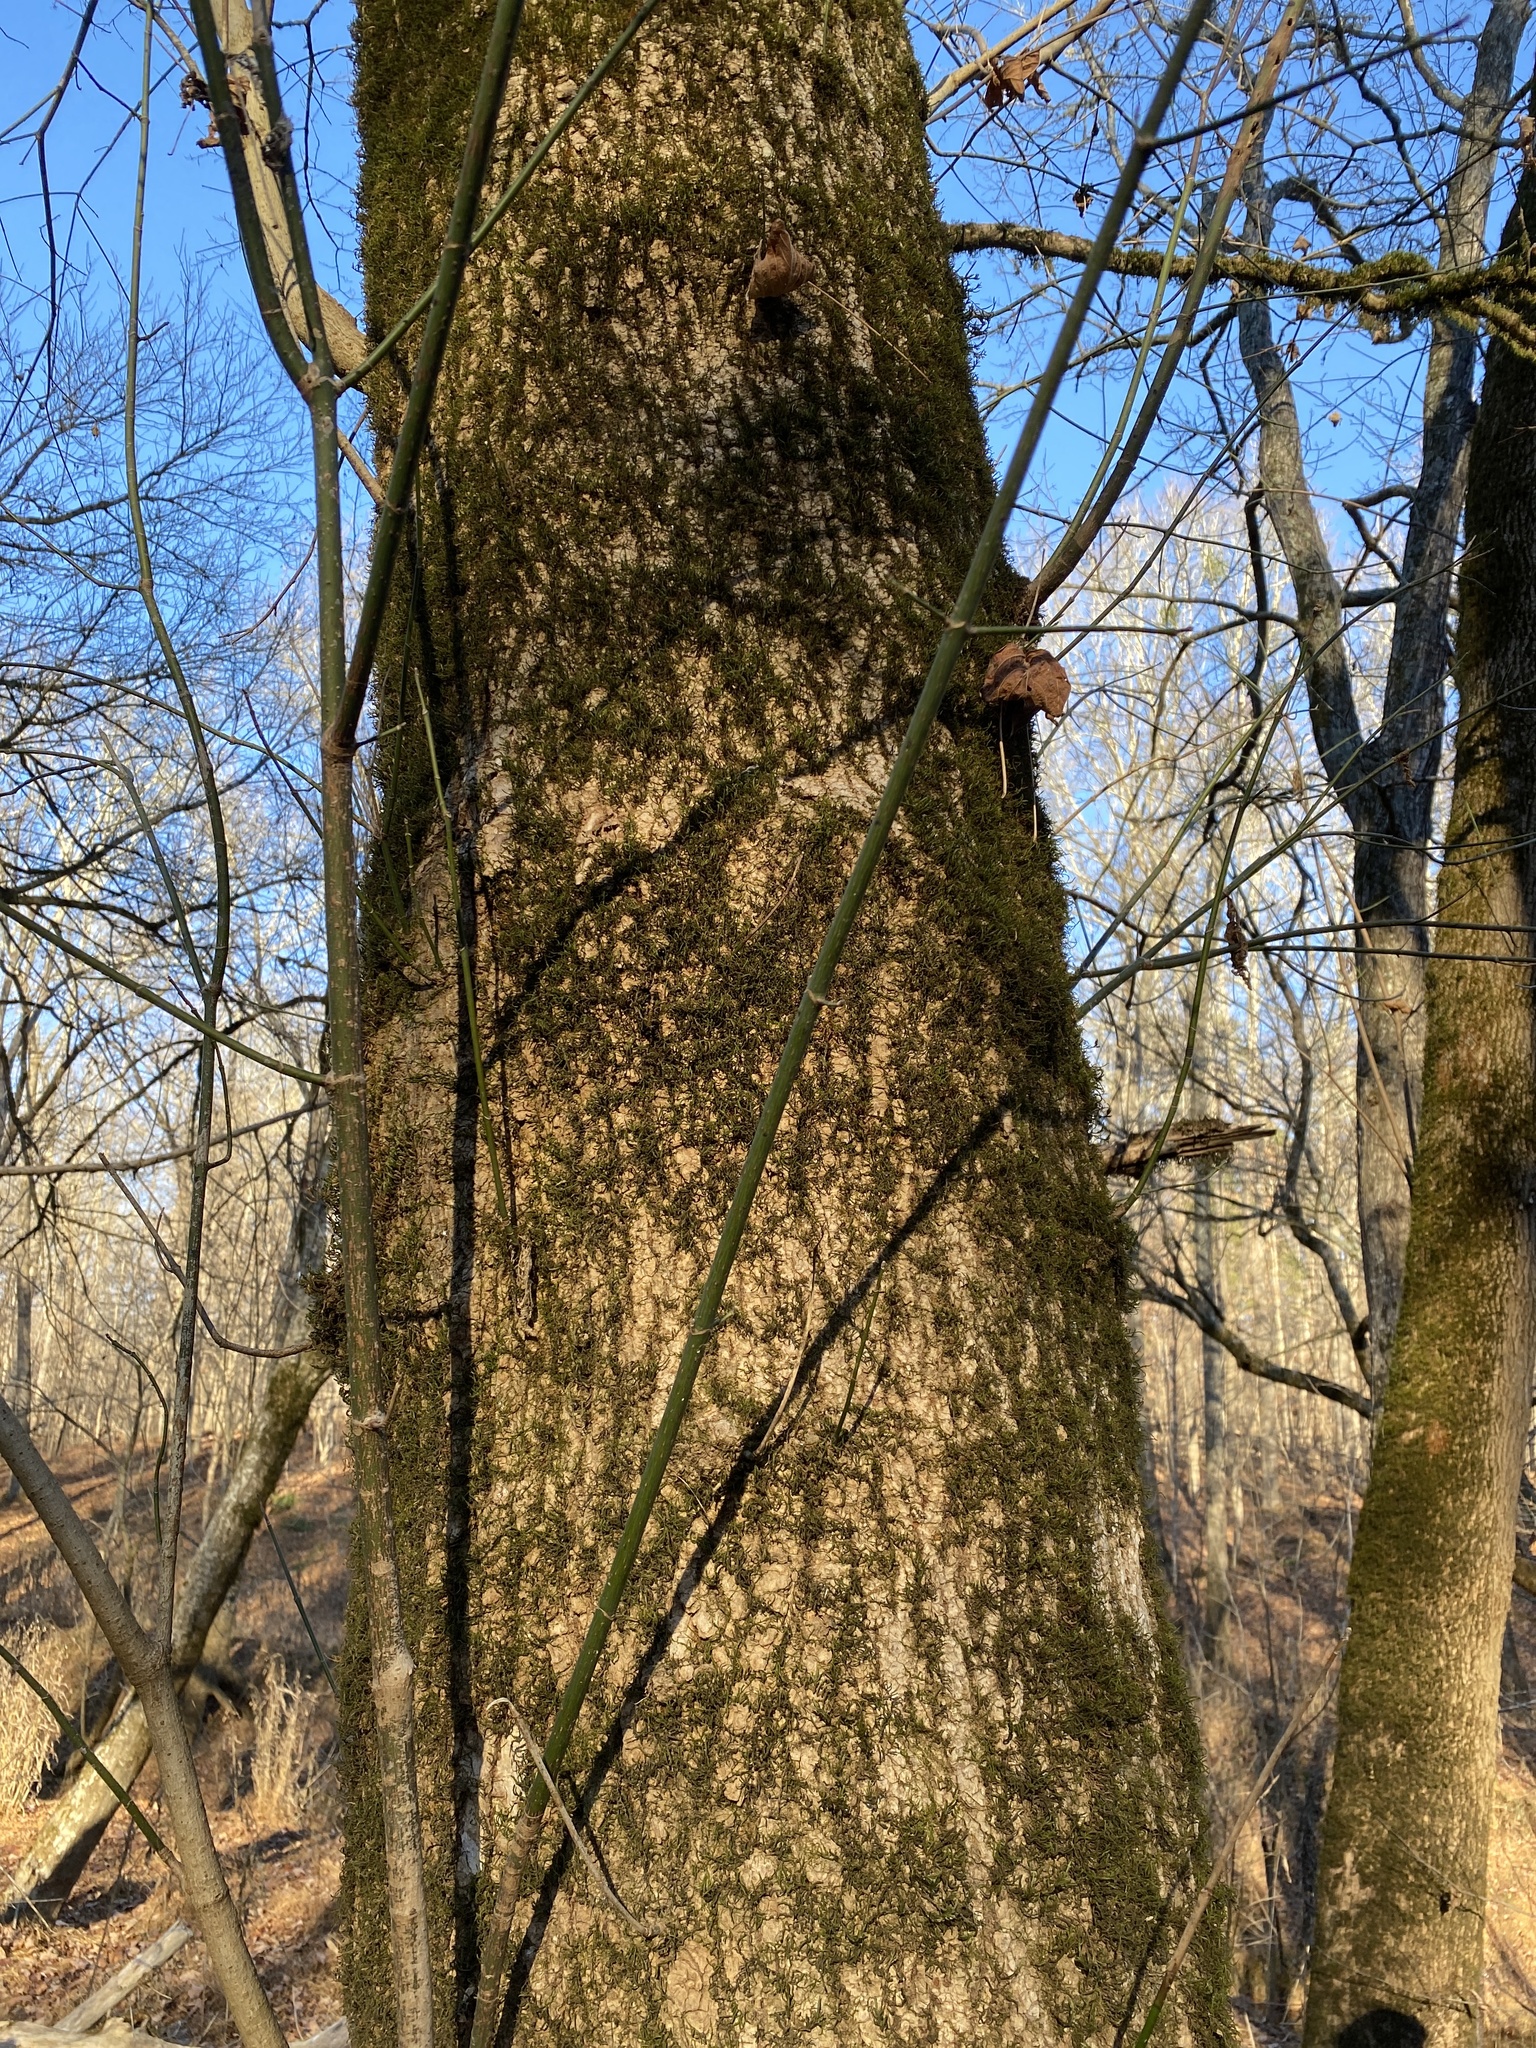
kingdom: Plantae
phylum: Tracheophyta
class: Magnoliopsida
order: Sapindales
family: Sapindaceae
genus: Acer
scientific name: Acer negundo
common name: Ashleaf maple
